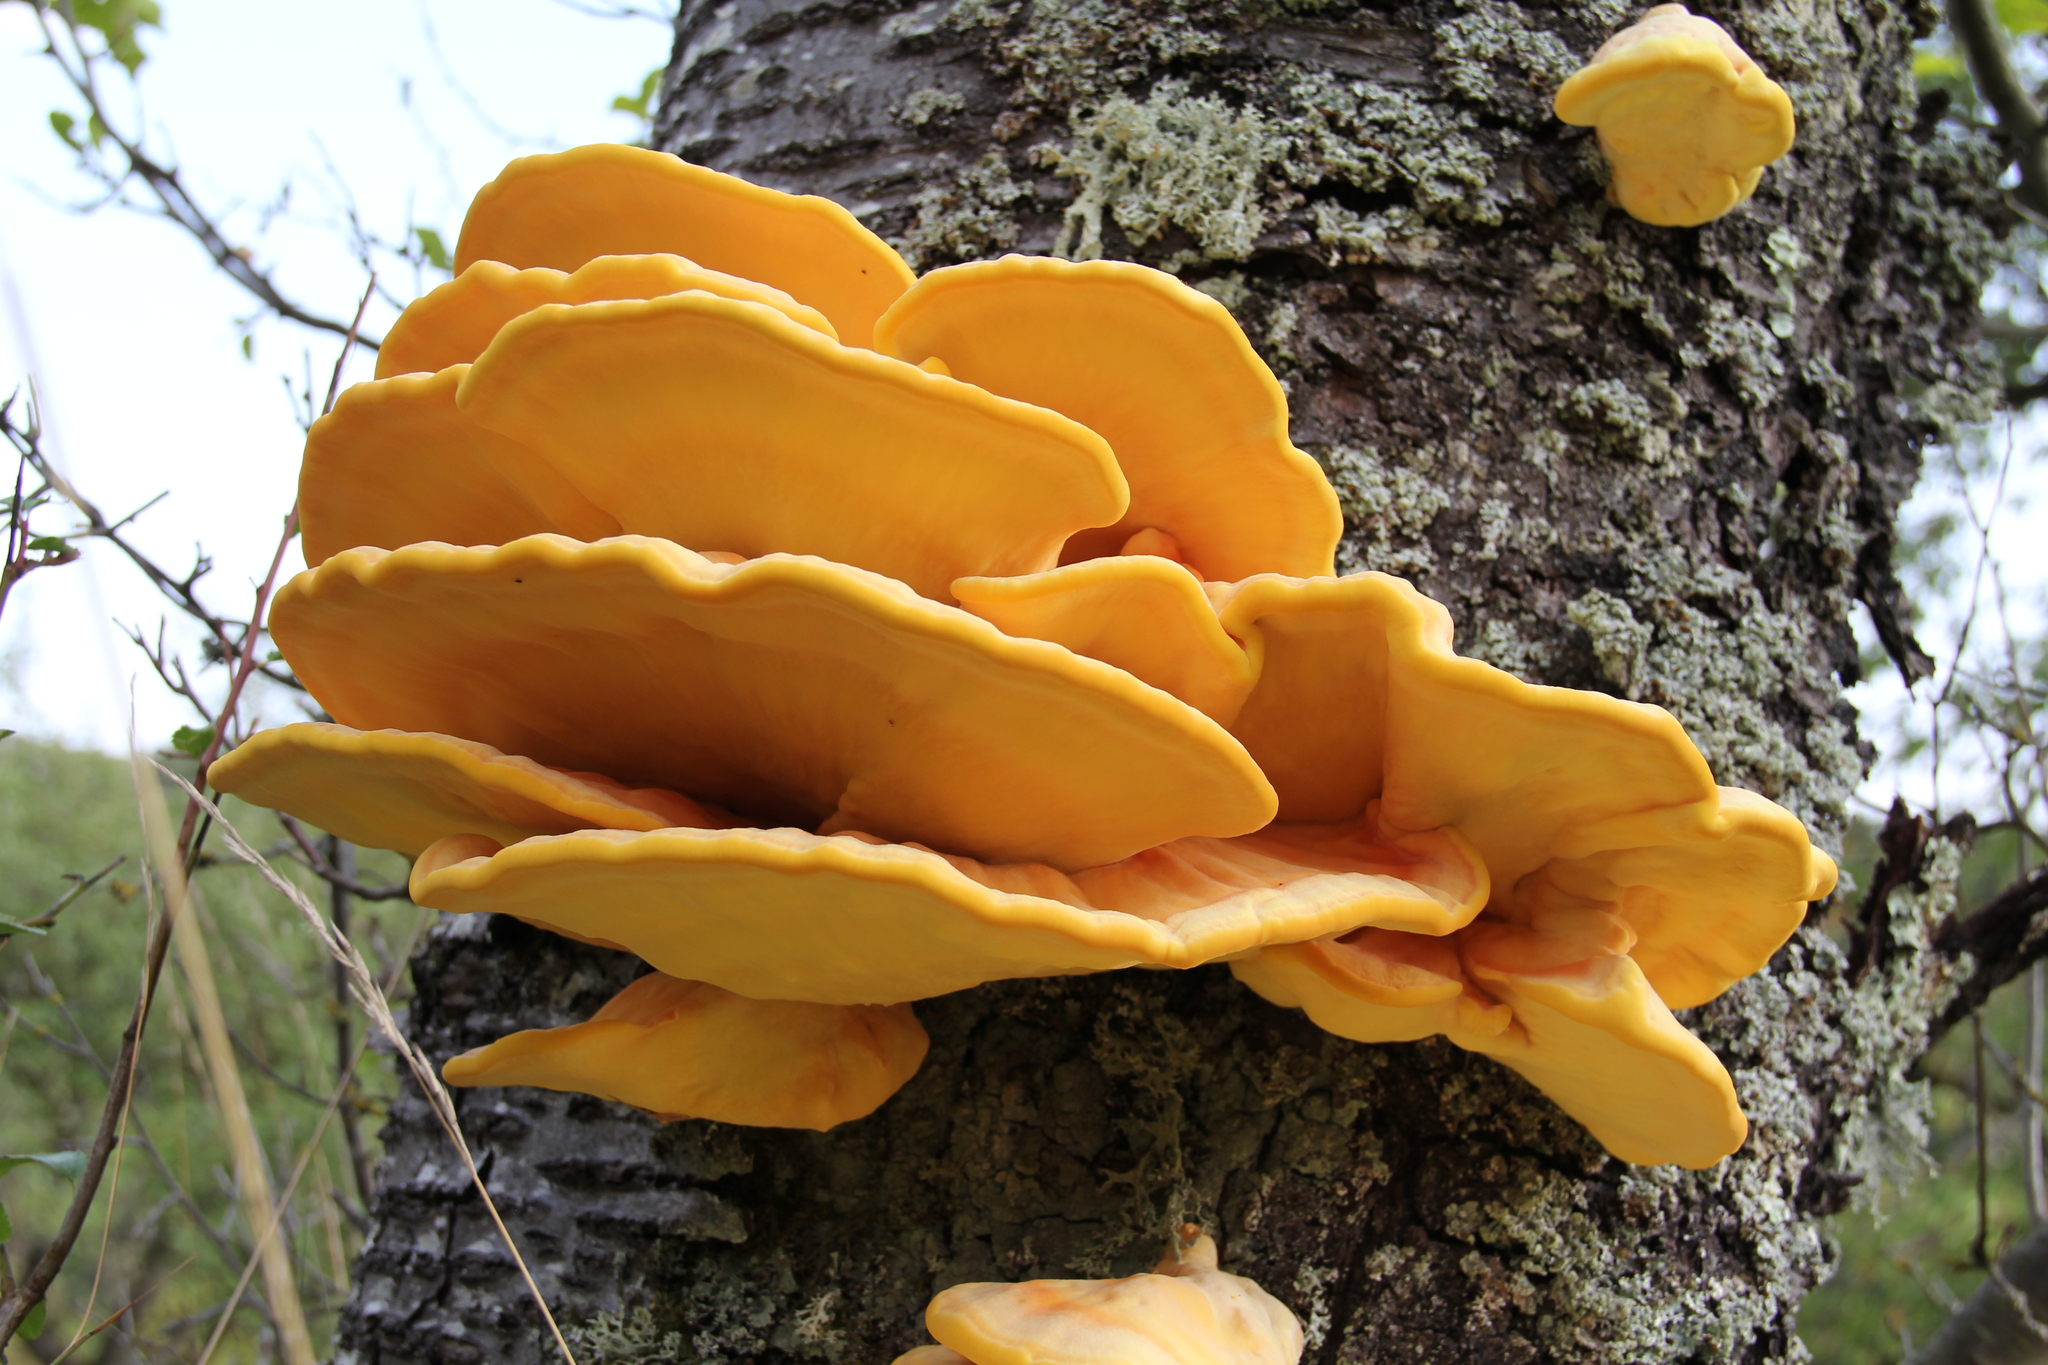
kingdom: Fungi
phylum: Basidiomycota
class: Agaricomycetes
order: Polyporales
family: Laetiporaceae
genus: Laetiporus
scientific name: Laetiporus sulphureus
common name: Chicken of the woods
